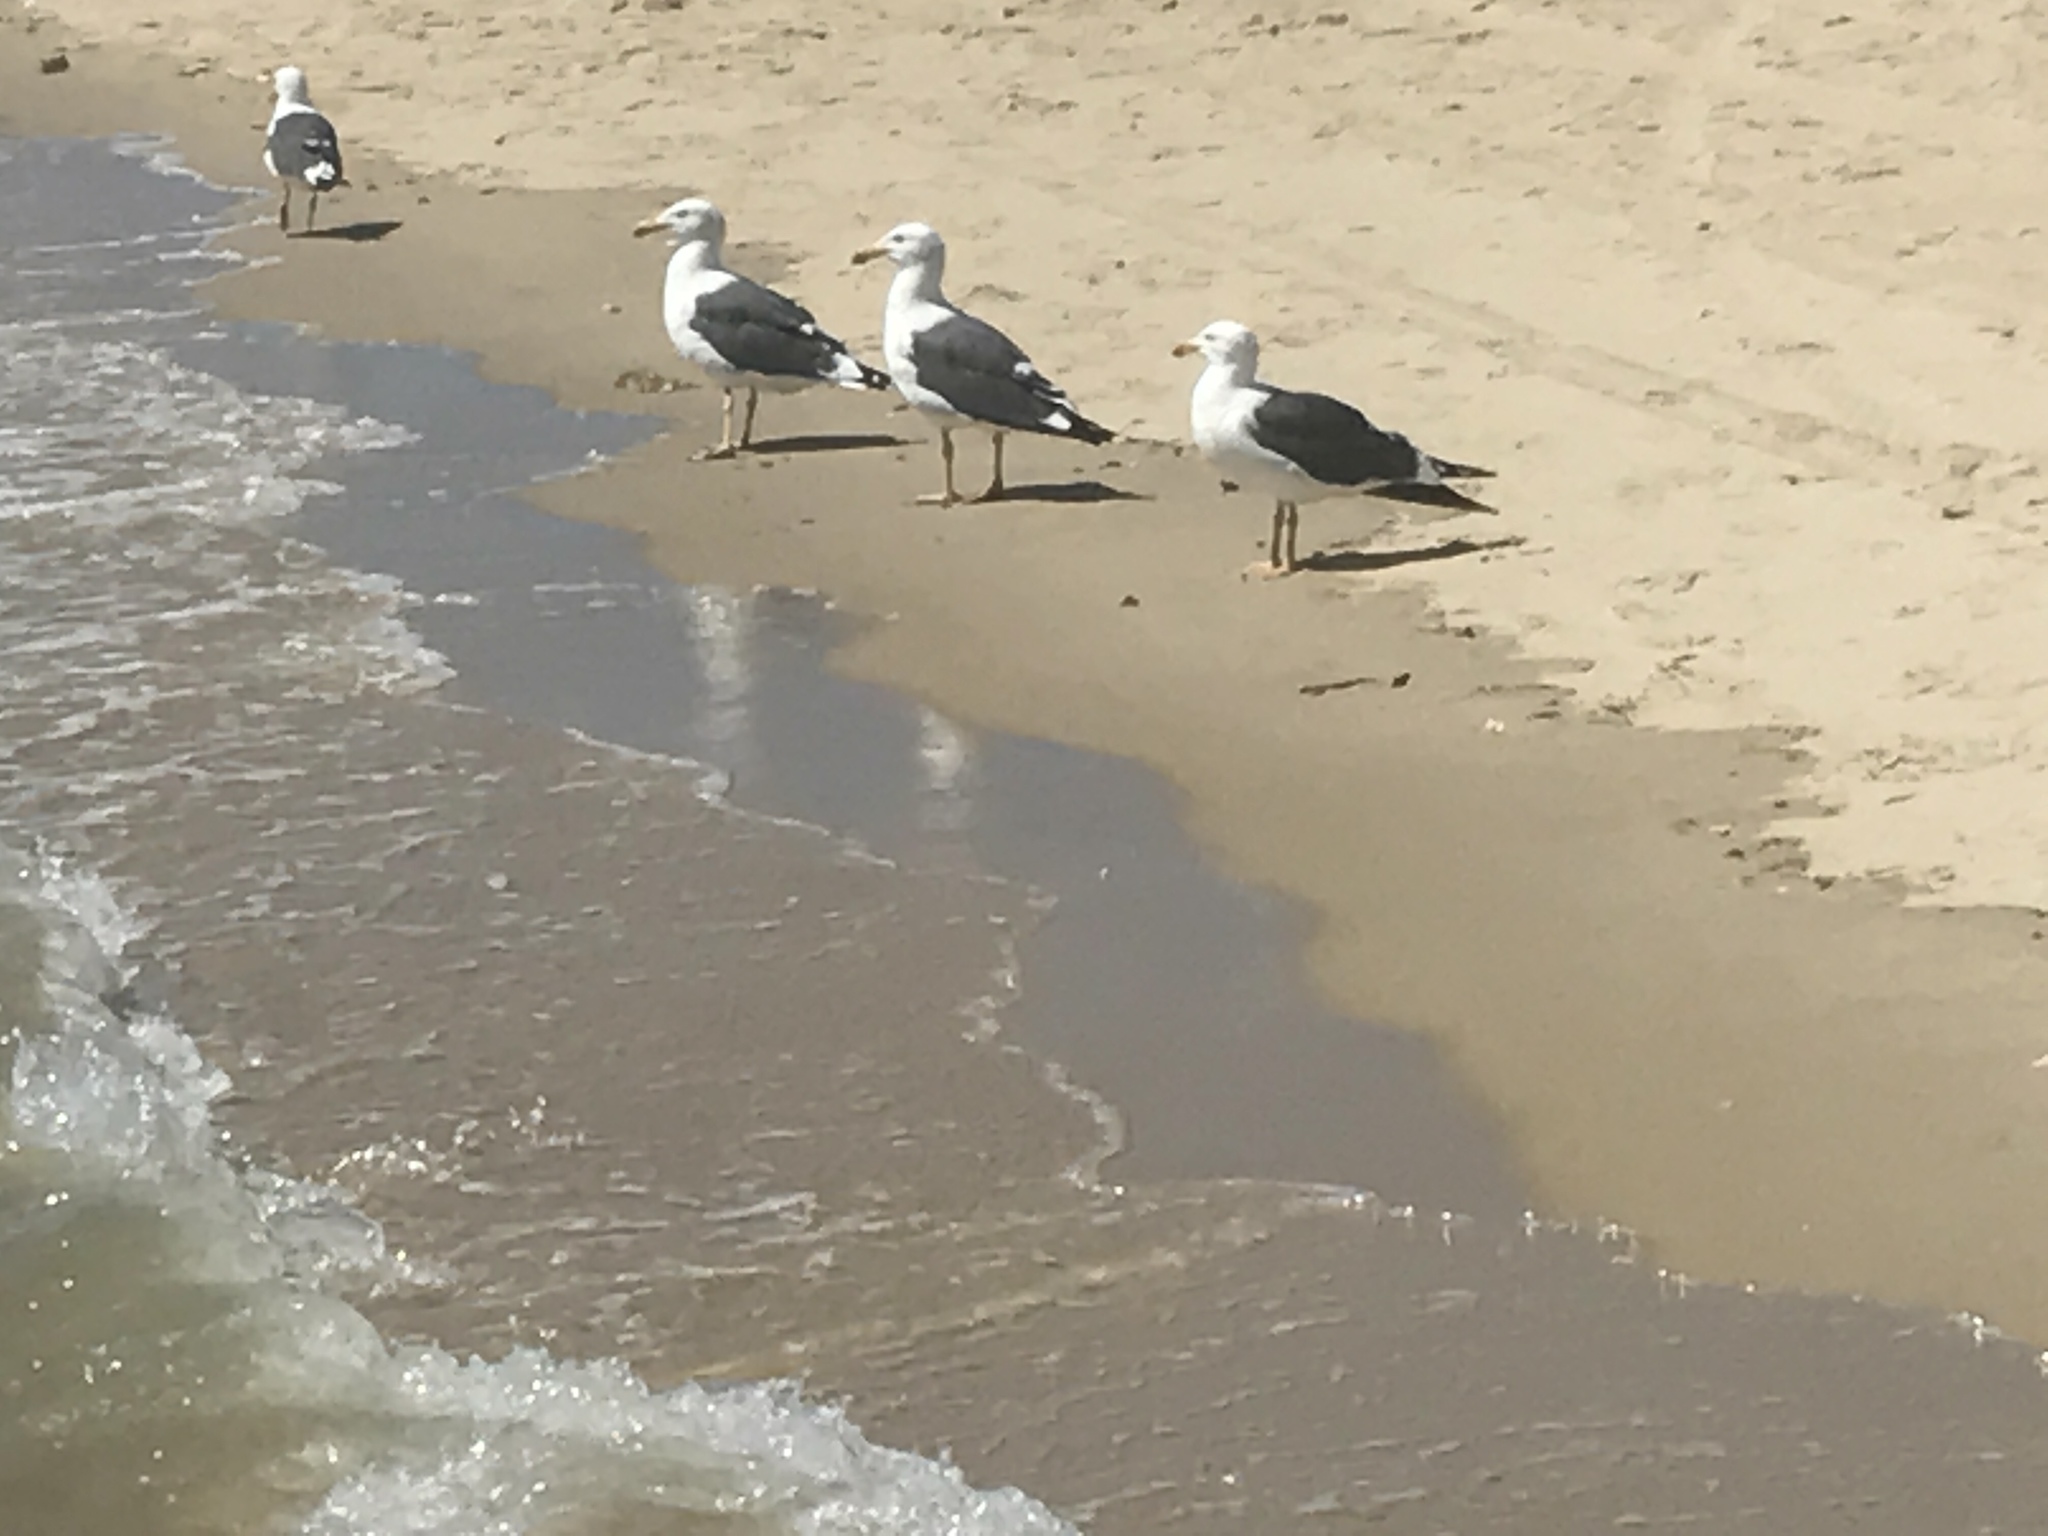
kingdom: Animalia
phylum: Chordata
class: Aves
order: Charadriiformes
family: Laridae
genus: Larus
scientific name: Larus livens
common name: Yellow-footed gull
